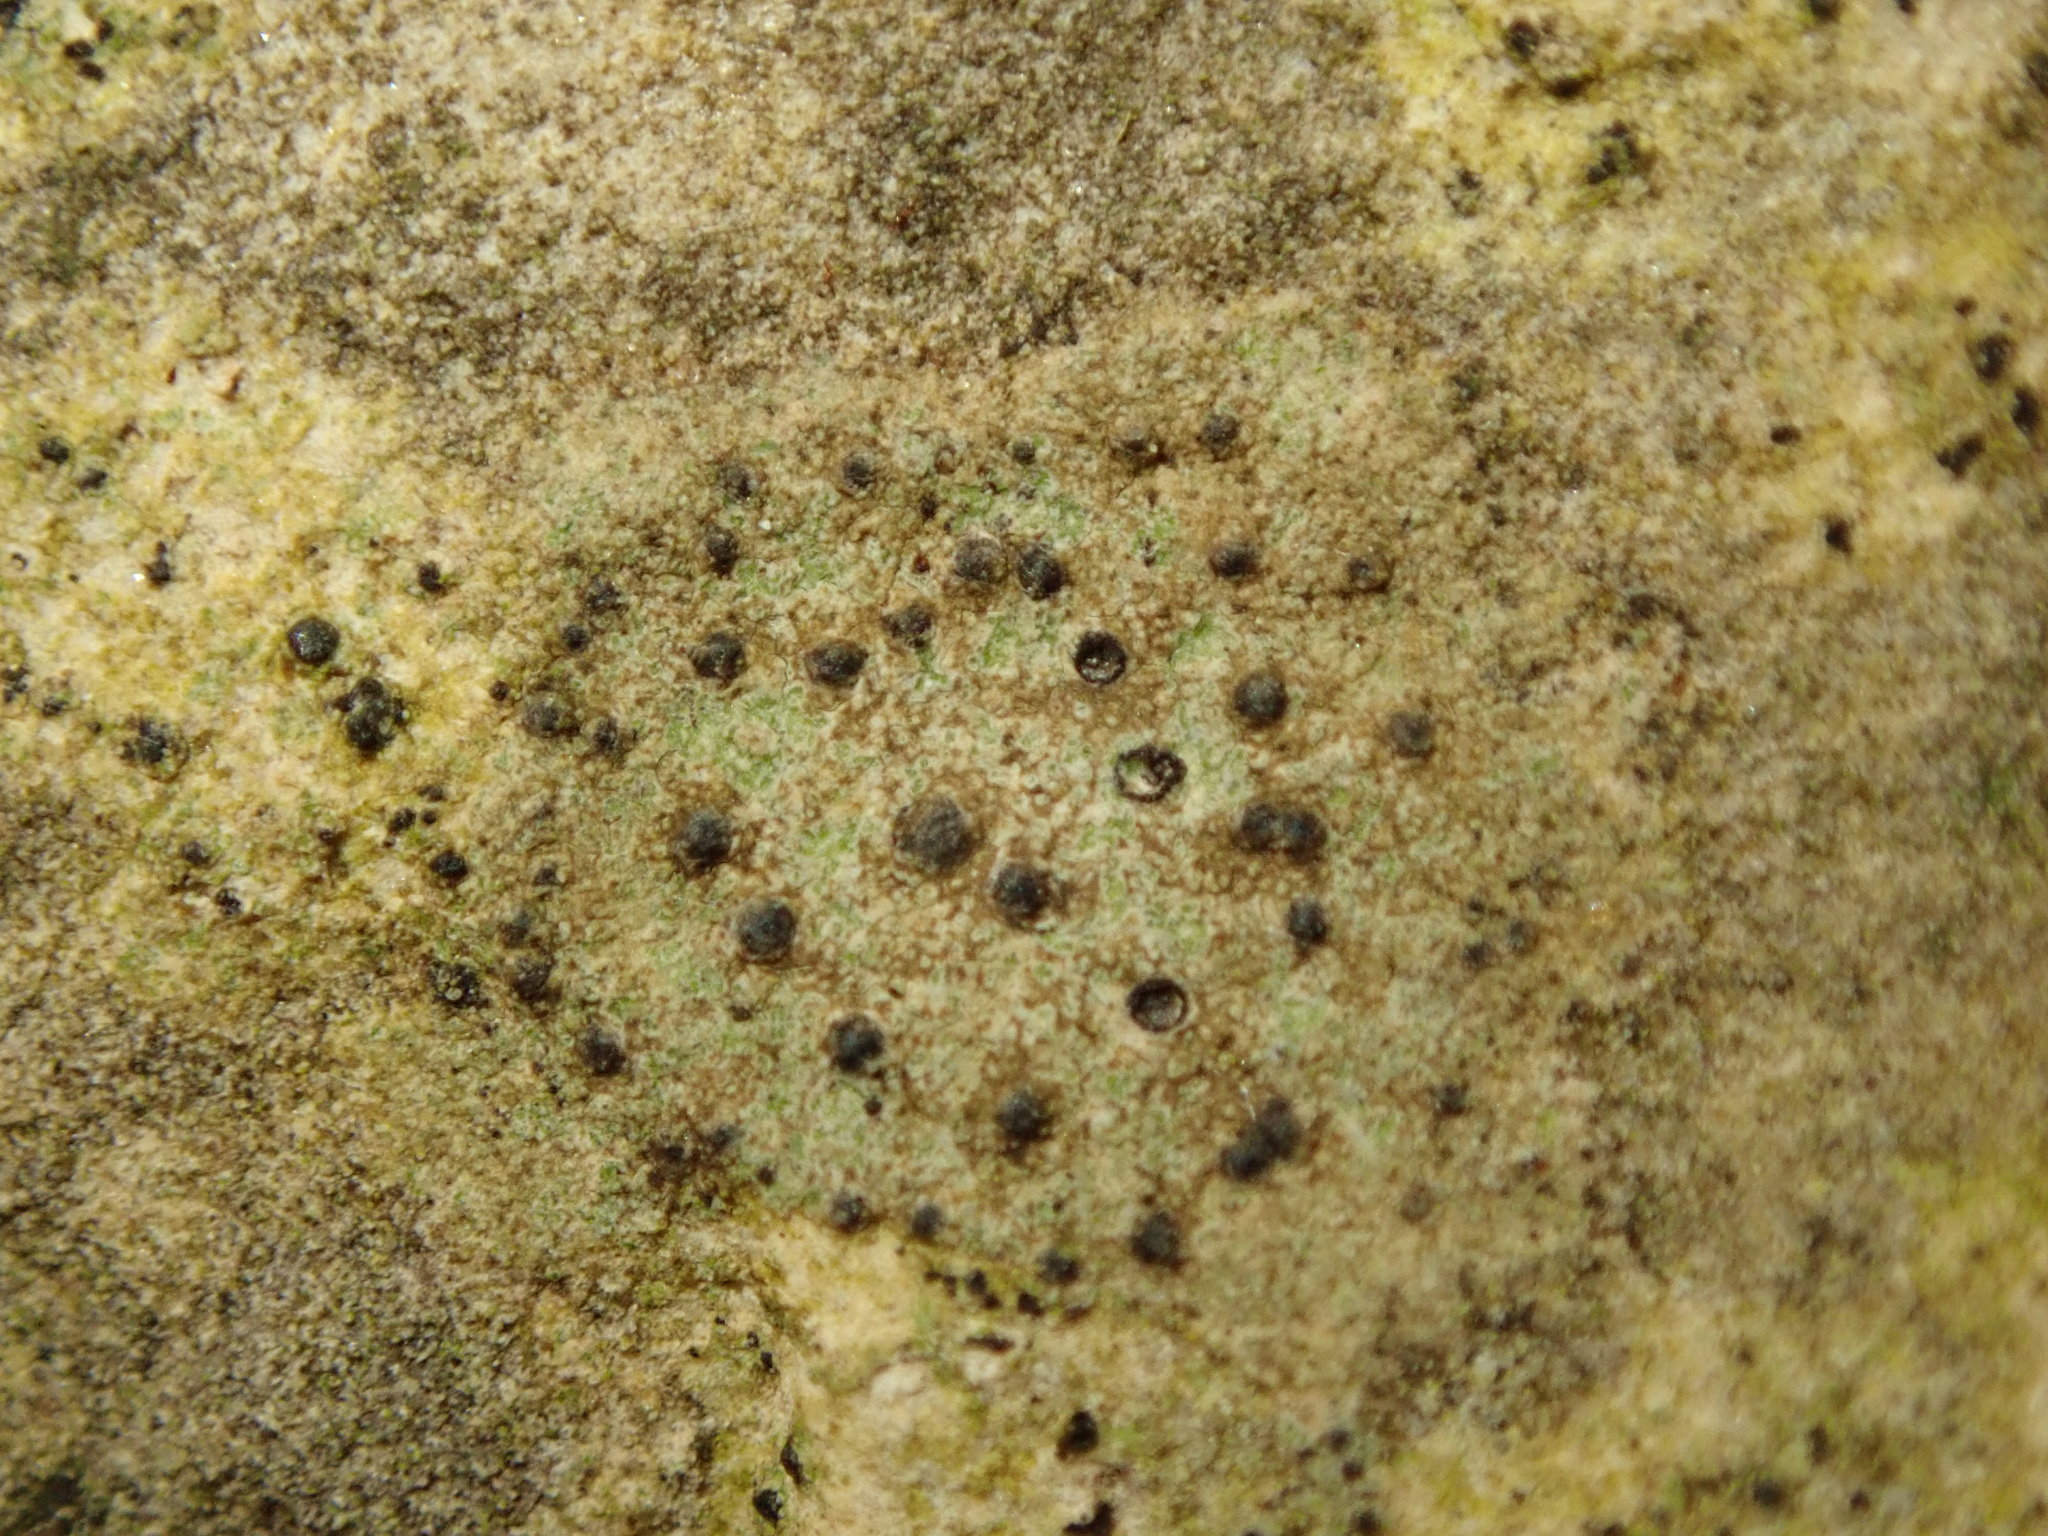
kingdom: Fungi
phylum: Ascomycota
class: Eurotiomycetes
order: Verrucariales
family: Verrucariaceae
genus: Verrucaria
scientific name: Verrucaria muralis
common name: Wall speck lichen
